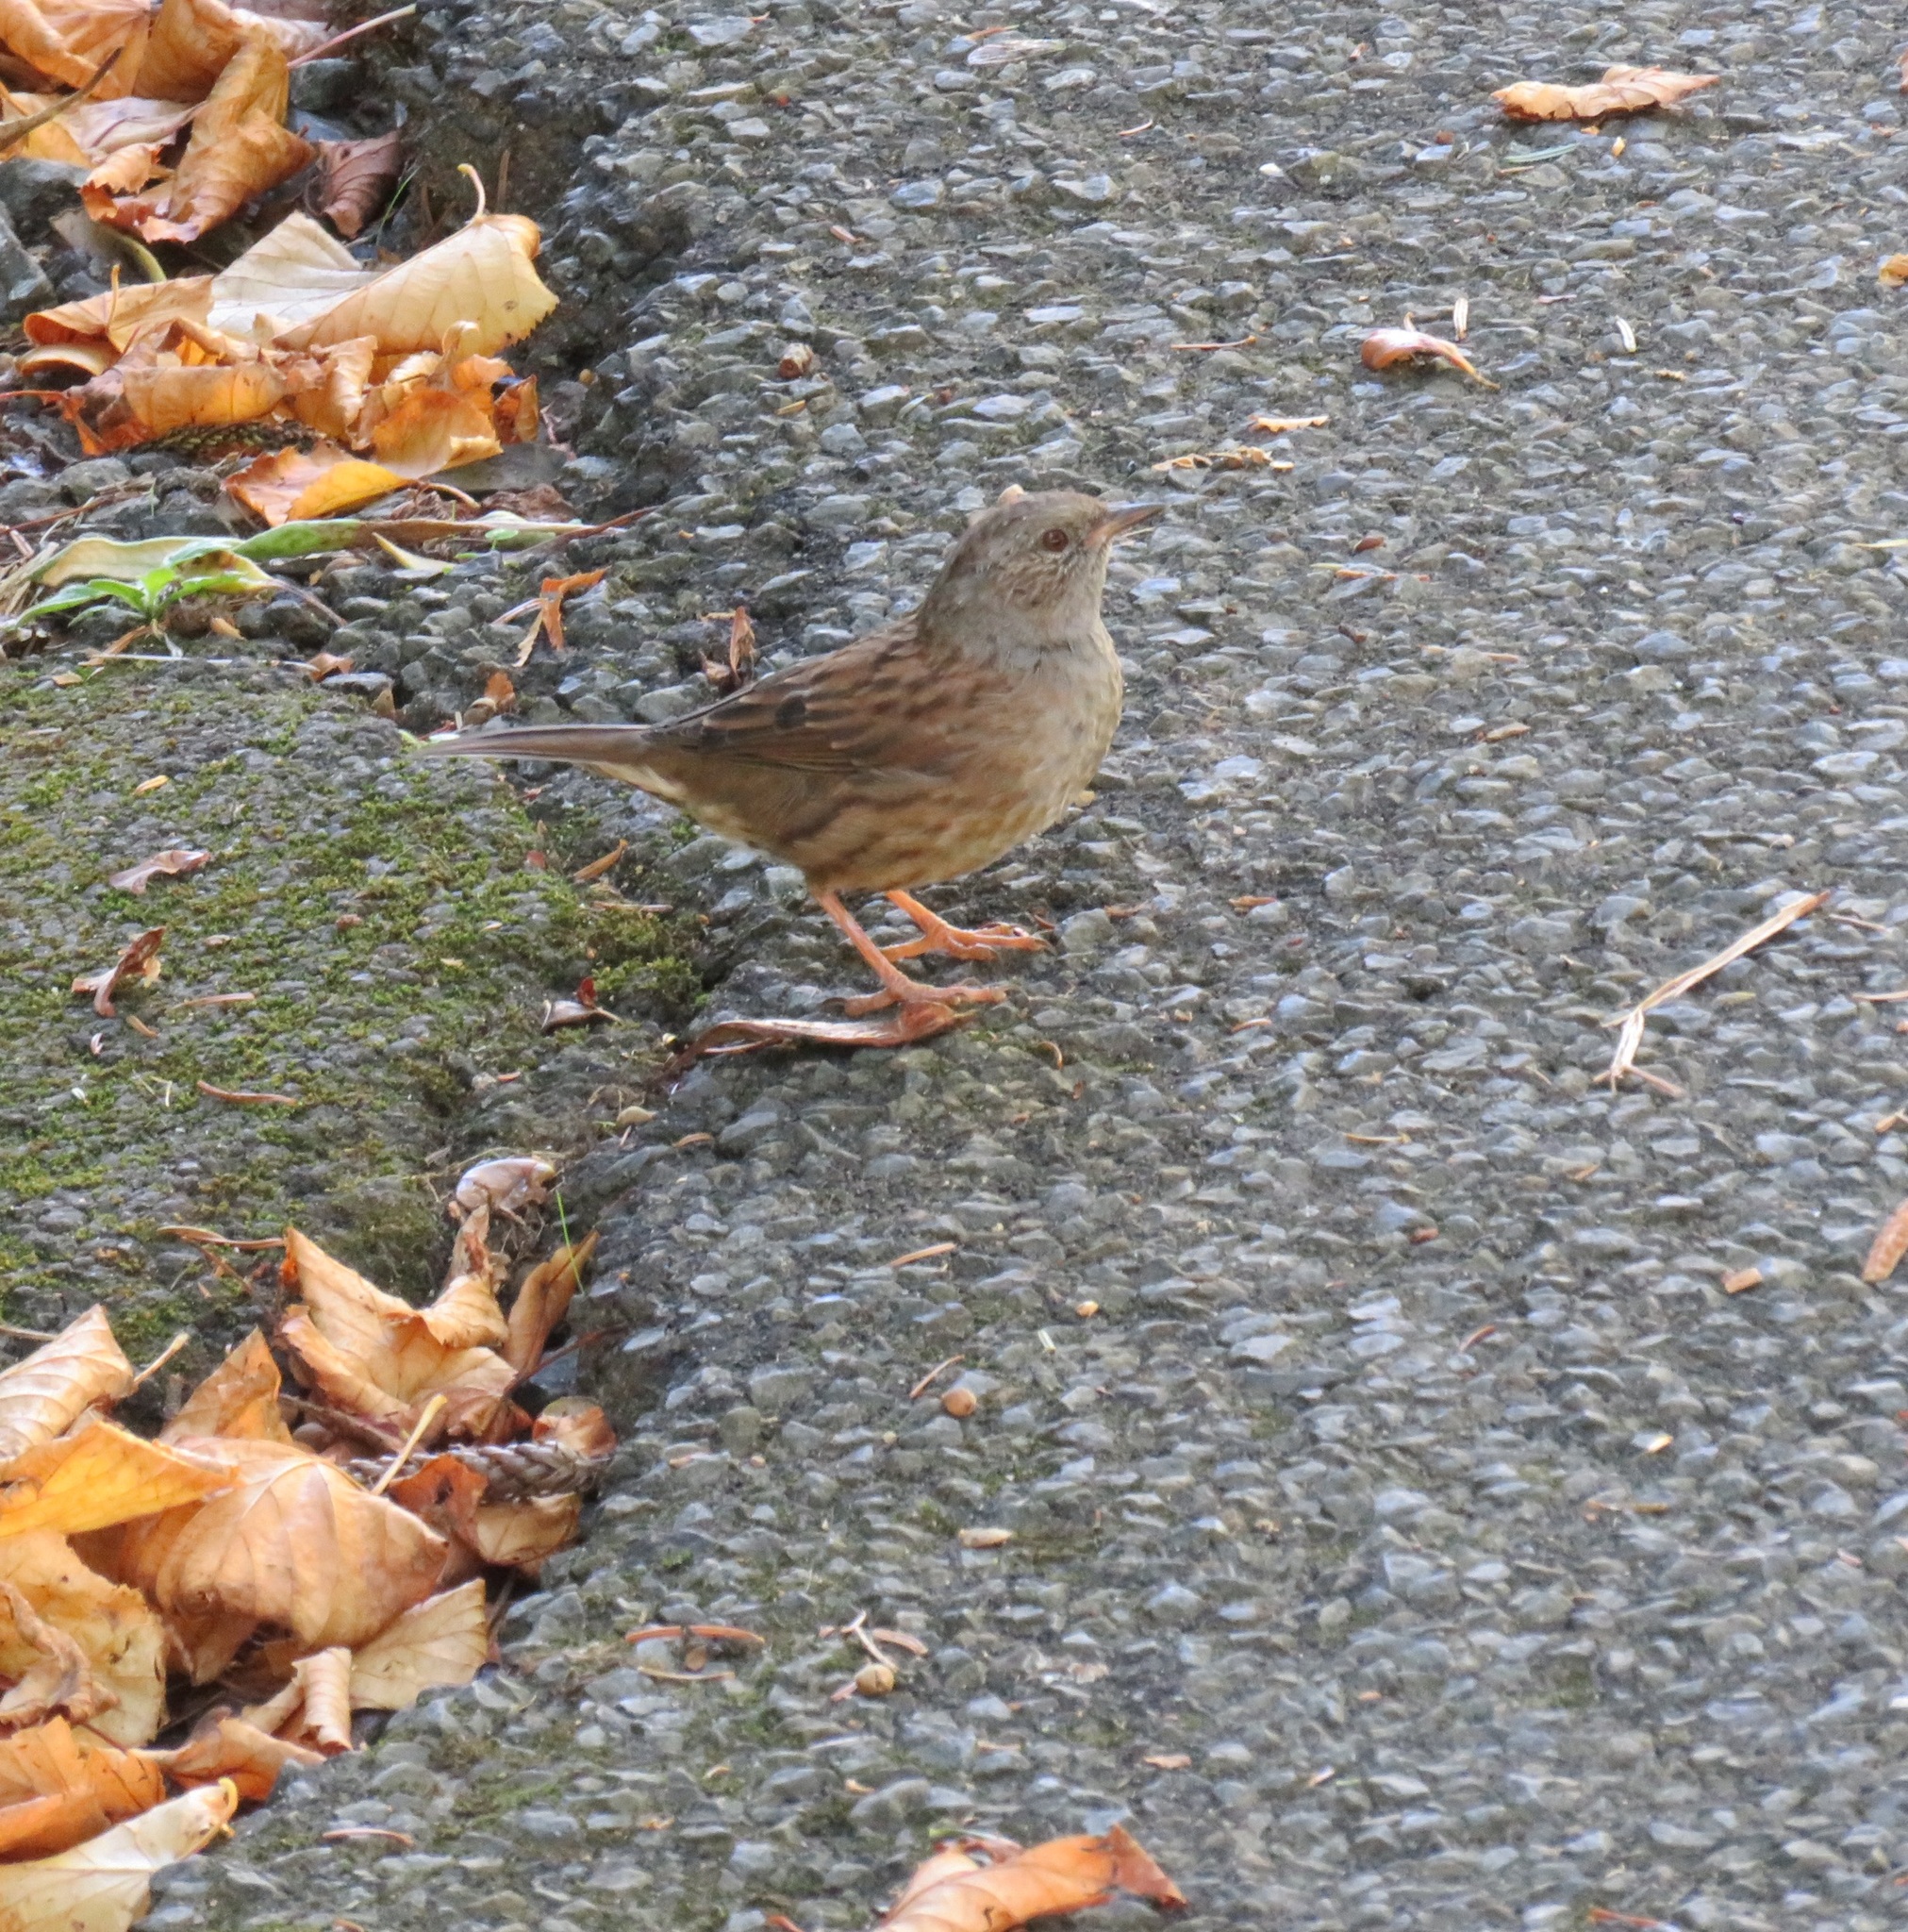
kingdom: Animalia
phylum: Chordata
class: Aves
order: Passeriformes
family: Prunellidae
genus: Prunella
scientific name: Prunella modularis
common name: Dunnock
